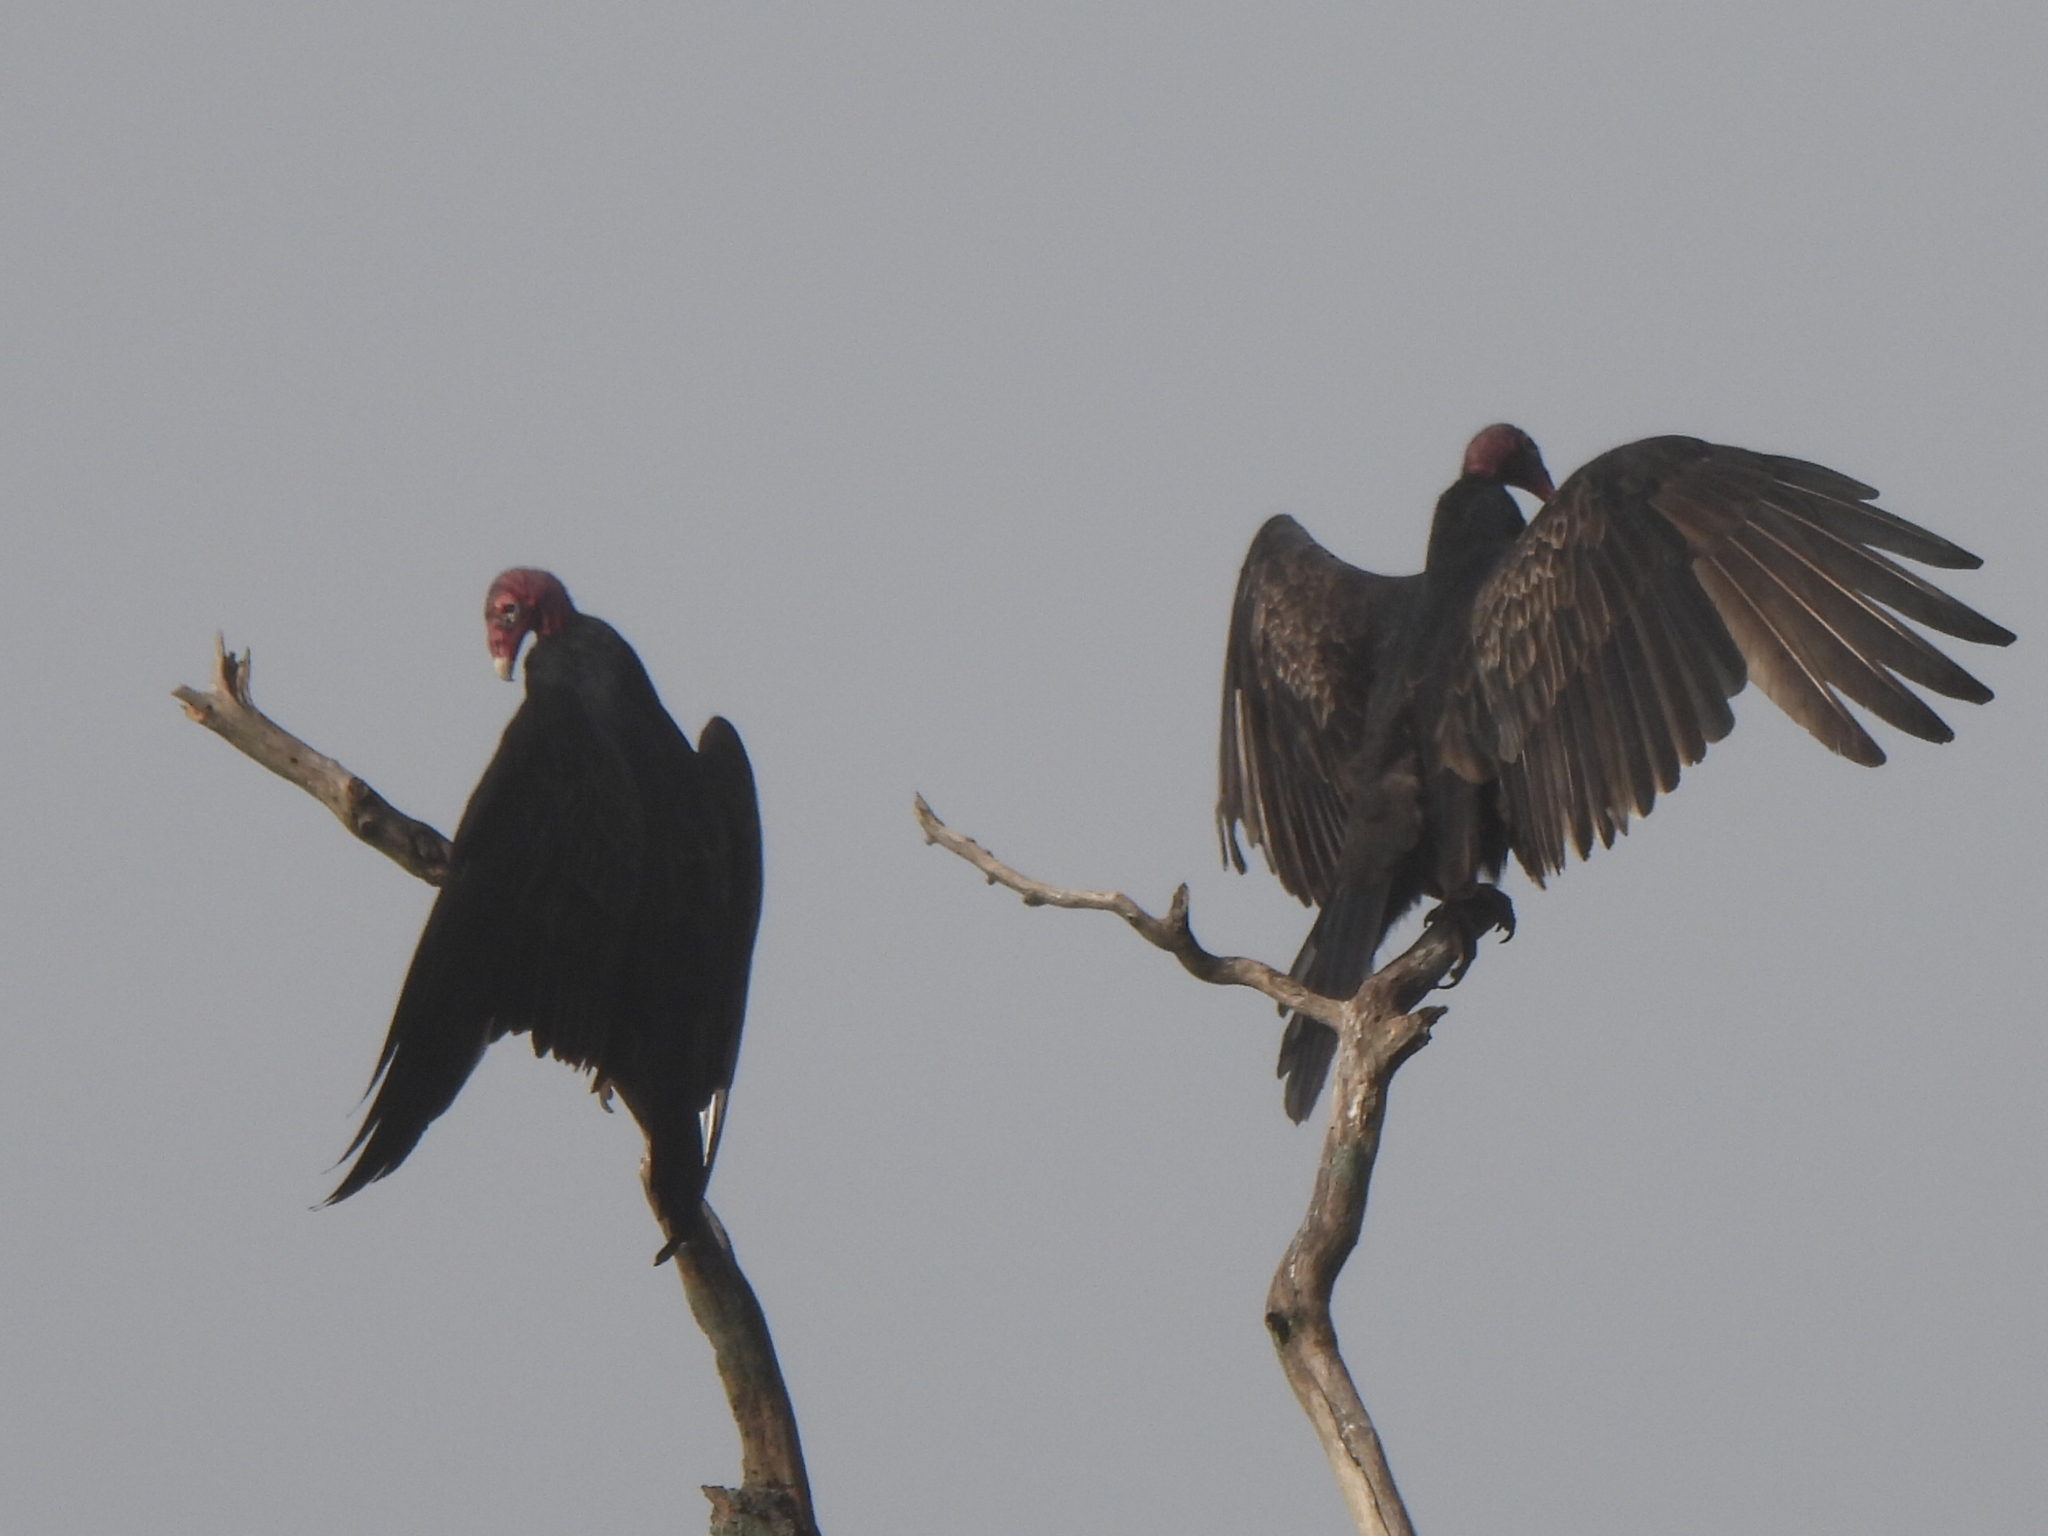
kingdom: Animalia
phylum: Chordata
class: Aves
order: Accipitriformes
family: Cathartidae
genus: Cathartes
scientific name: Cathartes aura
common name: Turkey vulture
